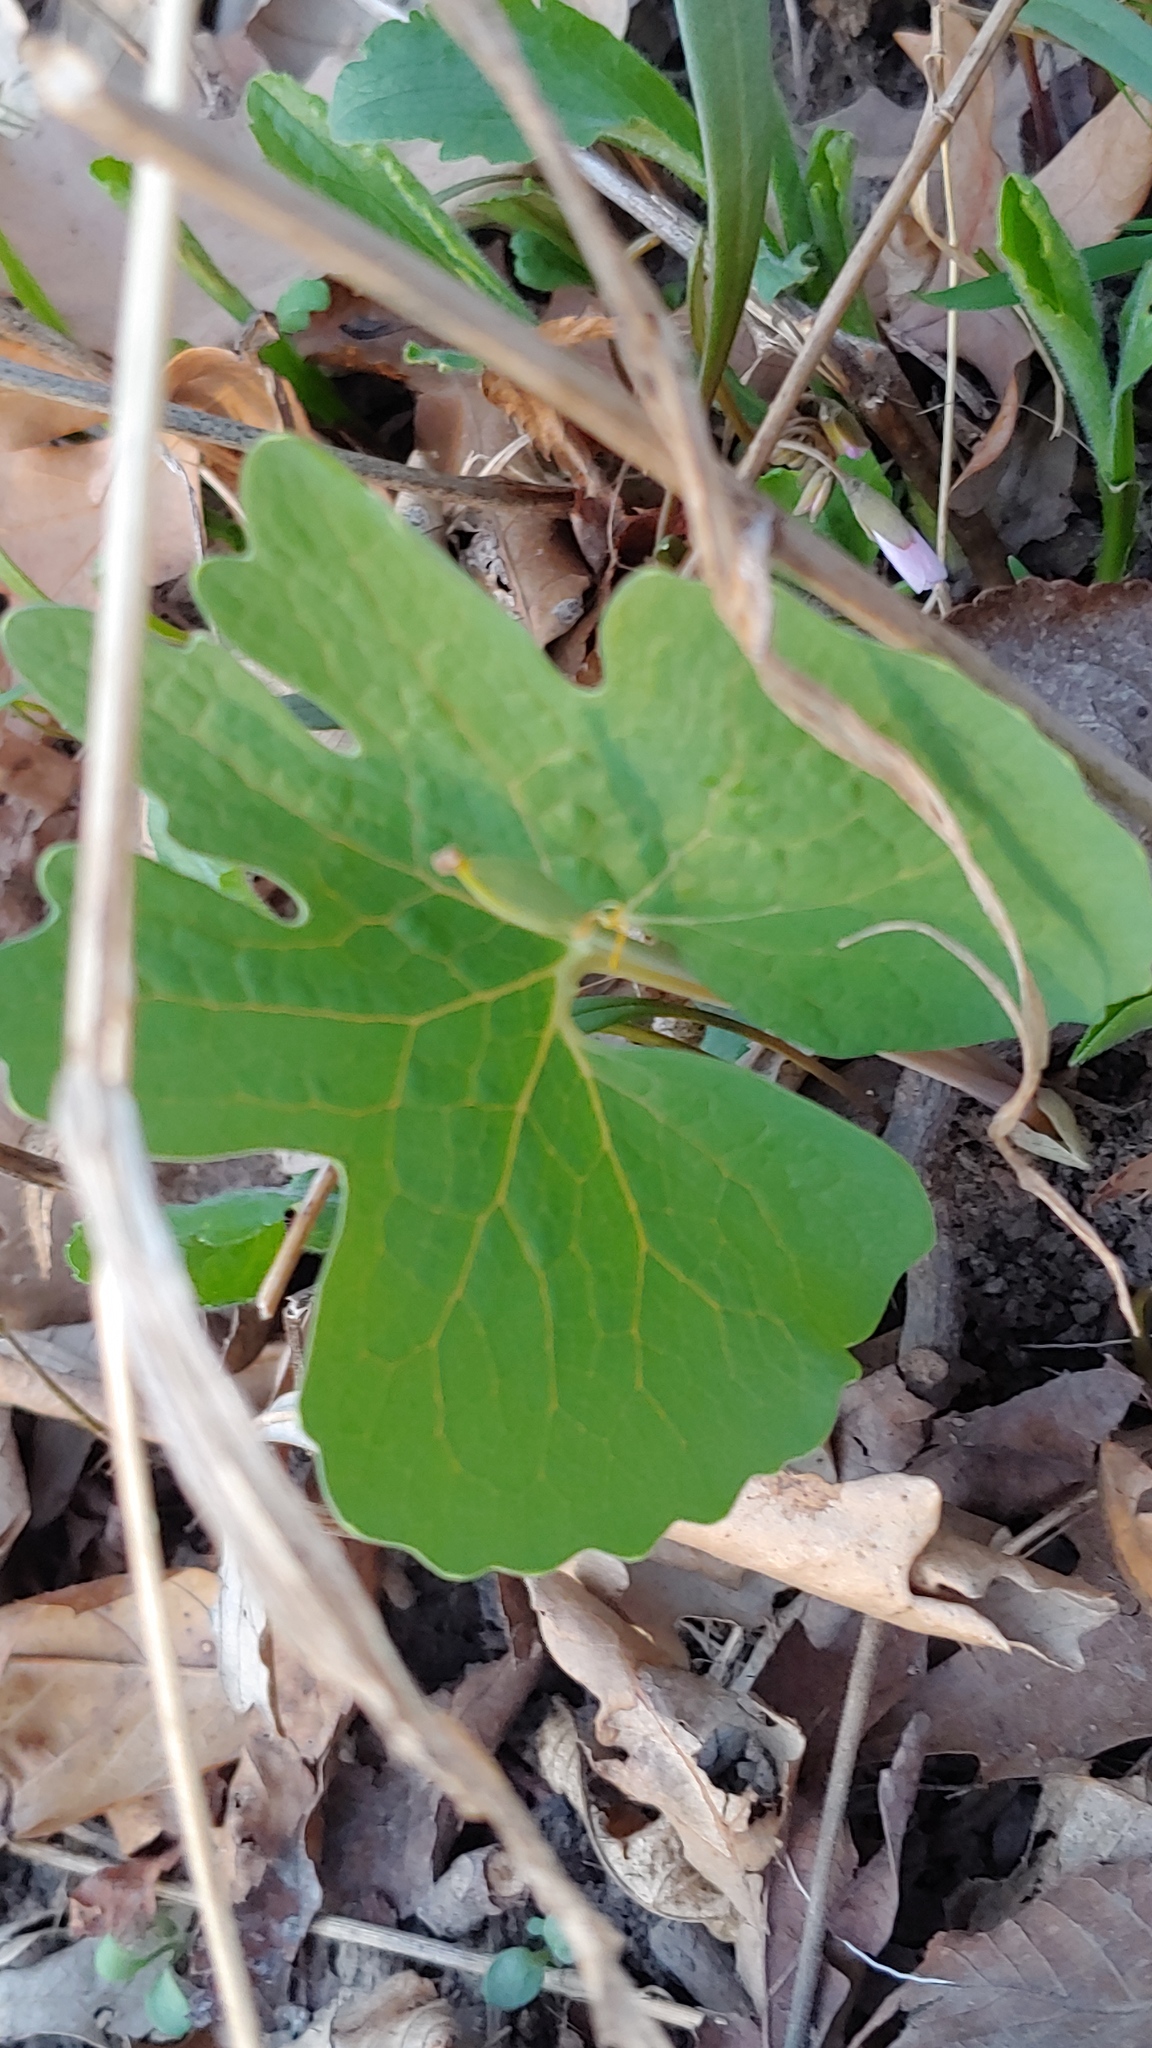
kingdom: Plantae
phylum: Tracheophyta
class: Magnoliopsida
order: Ranunculales
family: Papaveraceae
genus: Sanguinaria
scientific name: Sanguinaria canadensis
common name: Bloodroot
